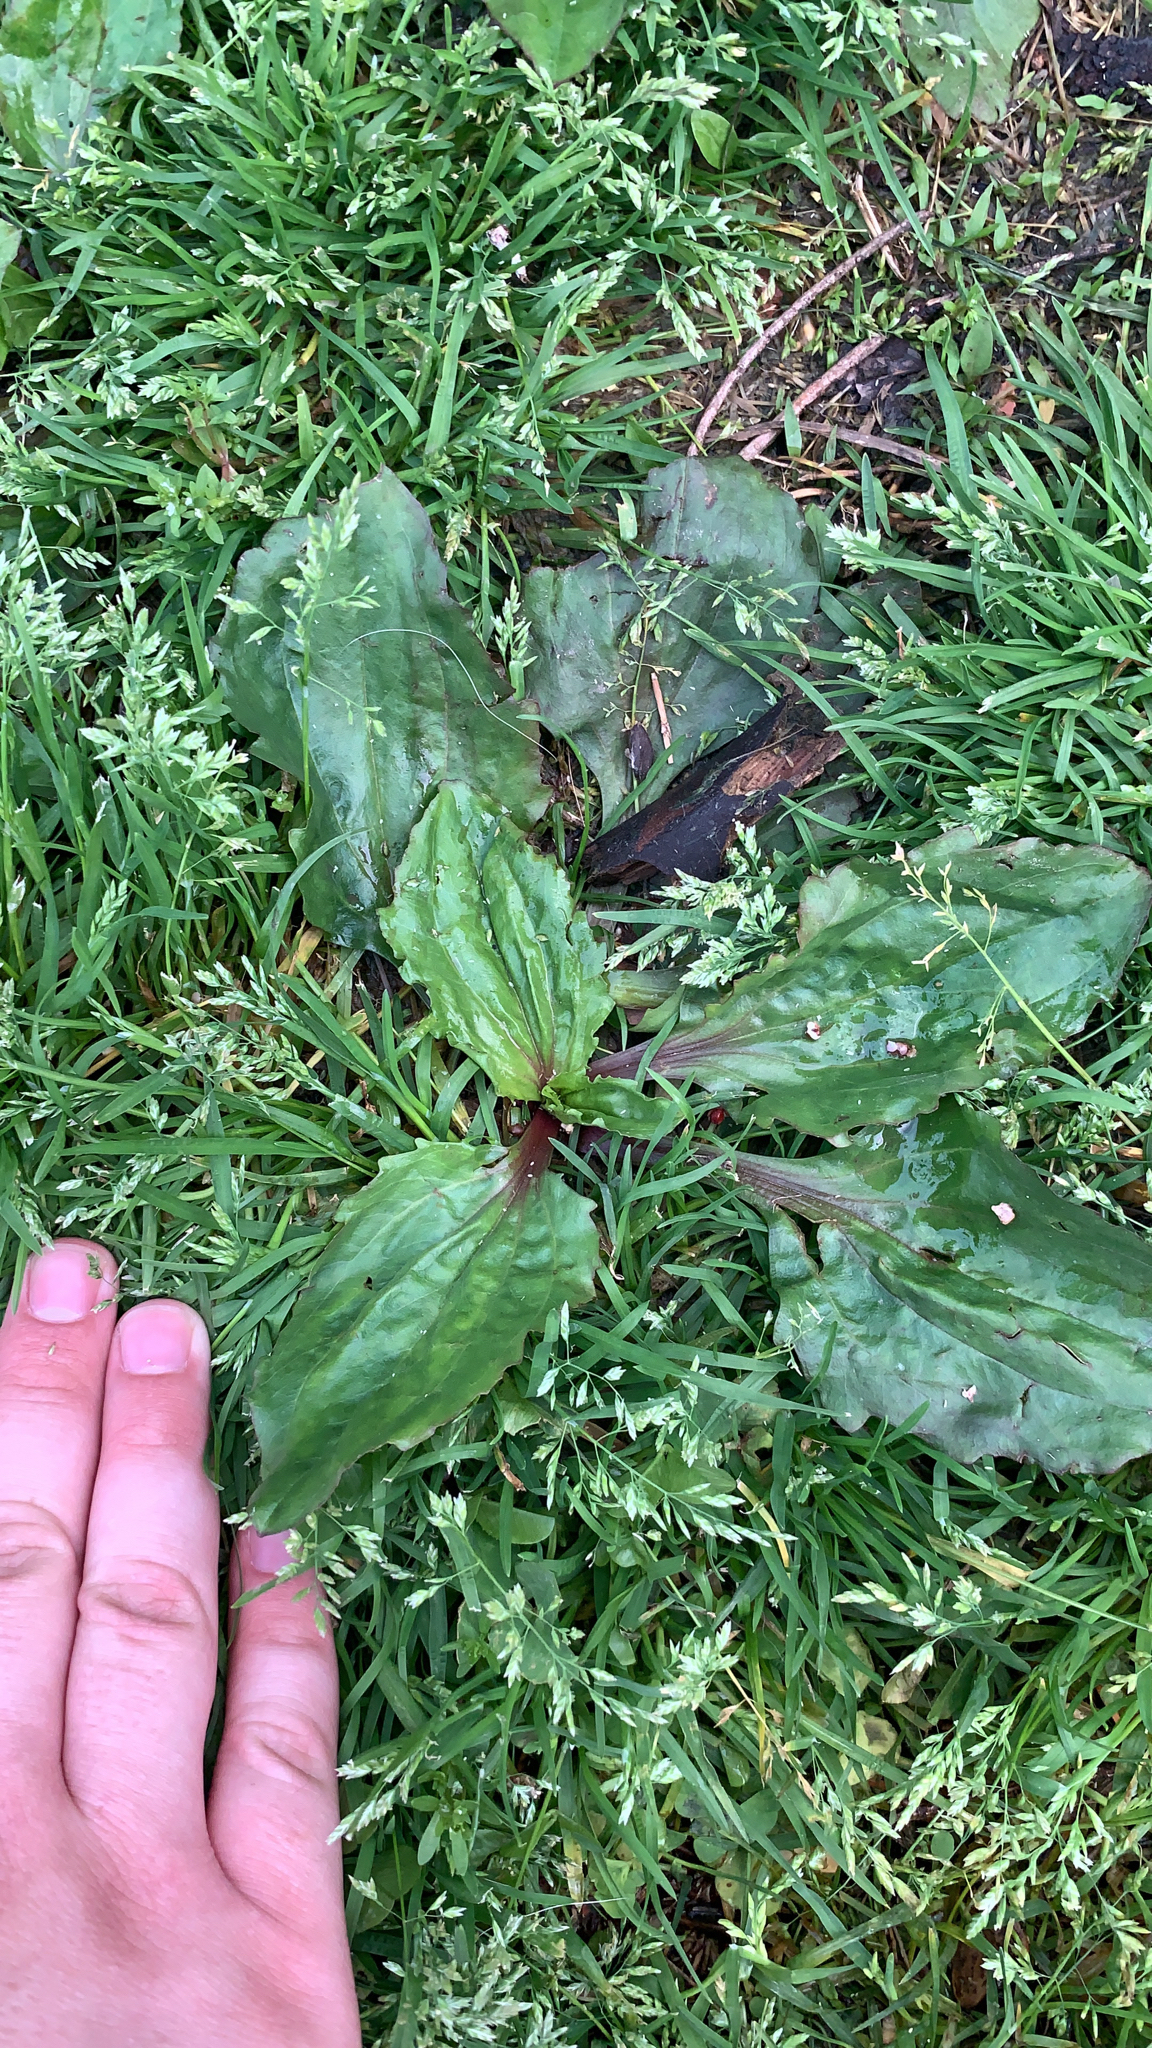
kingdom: Plantae
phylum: Tracheophyta
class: Magnoliopsida
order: Lamiales
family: Plantaginaceae
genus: Plantago
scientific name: Plantago rugelii
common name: American plantain
